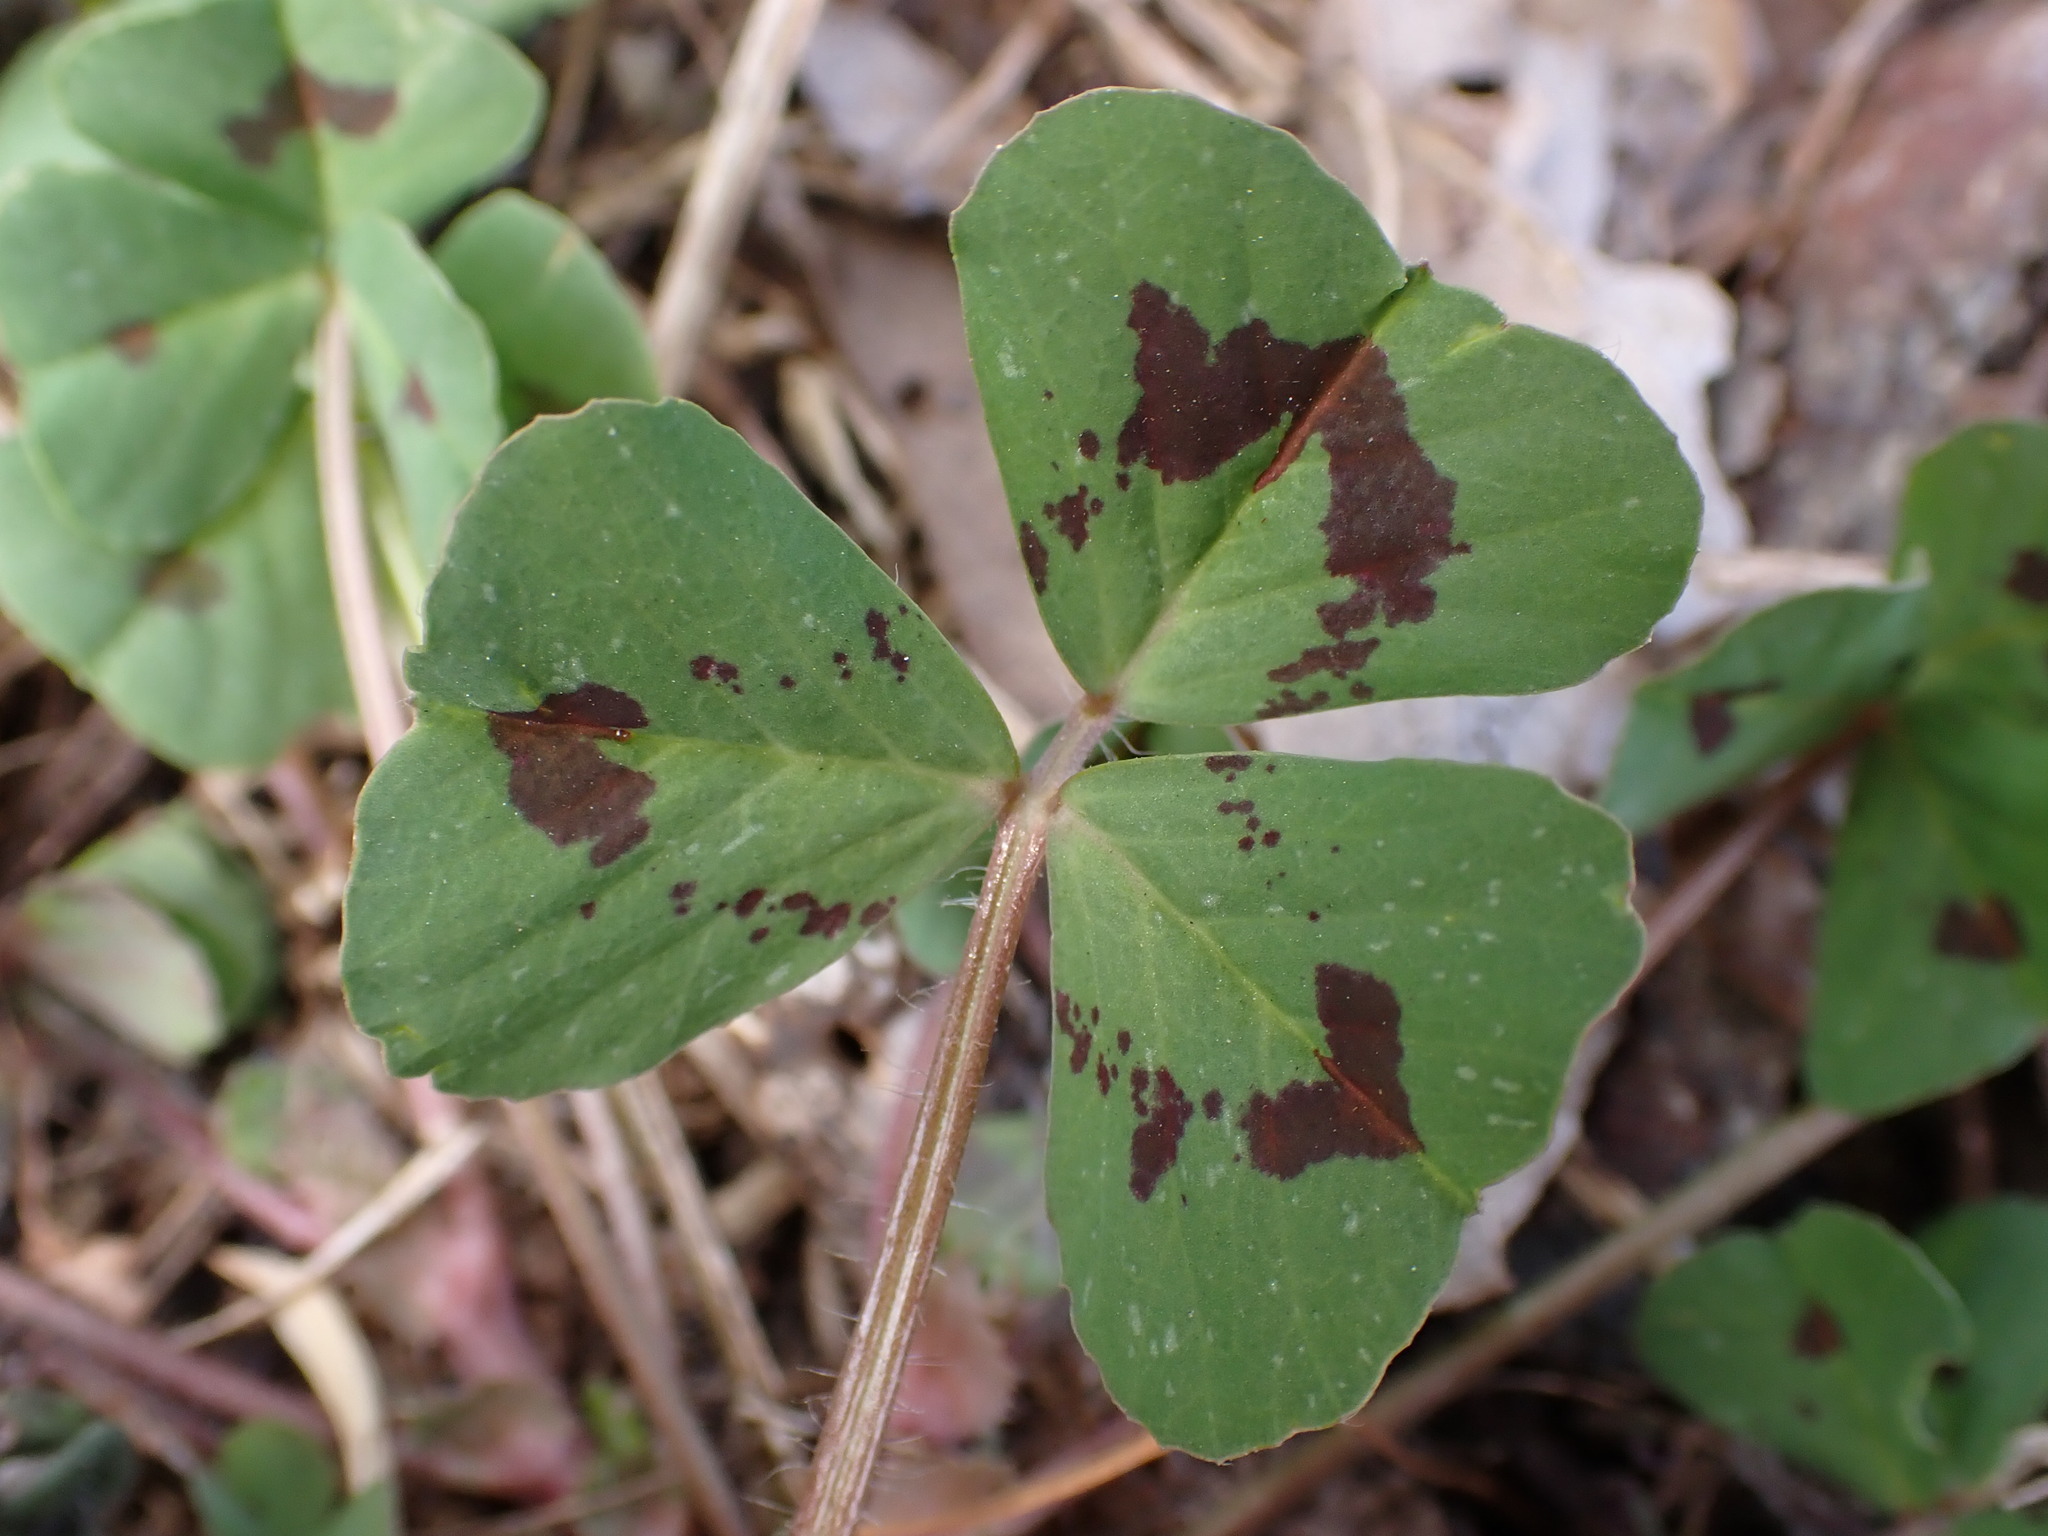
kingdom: Plantae
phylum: Tracheophyta
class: Magnoliopsida
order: Fabales
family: Fabaceae
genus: Medicago
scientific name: Medicago arabica
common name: Spotted medick
